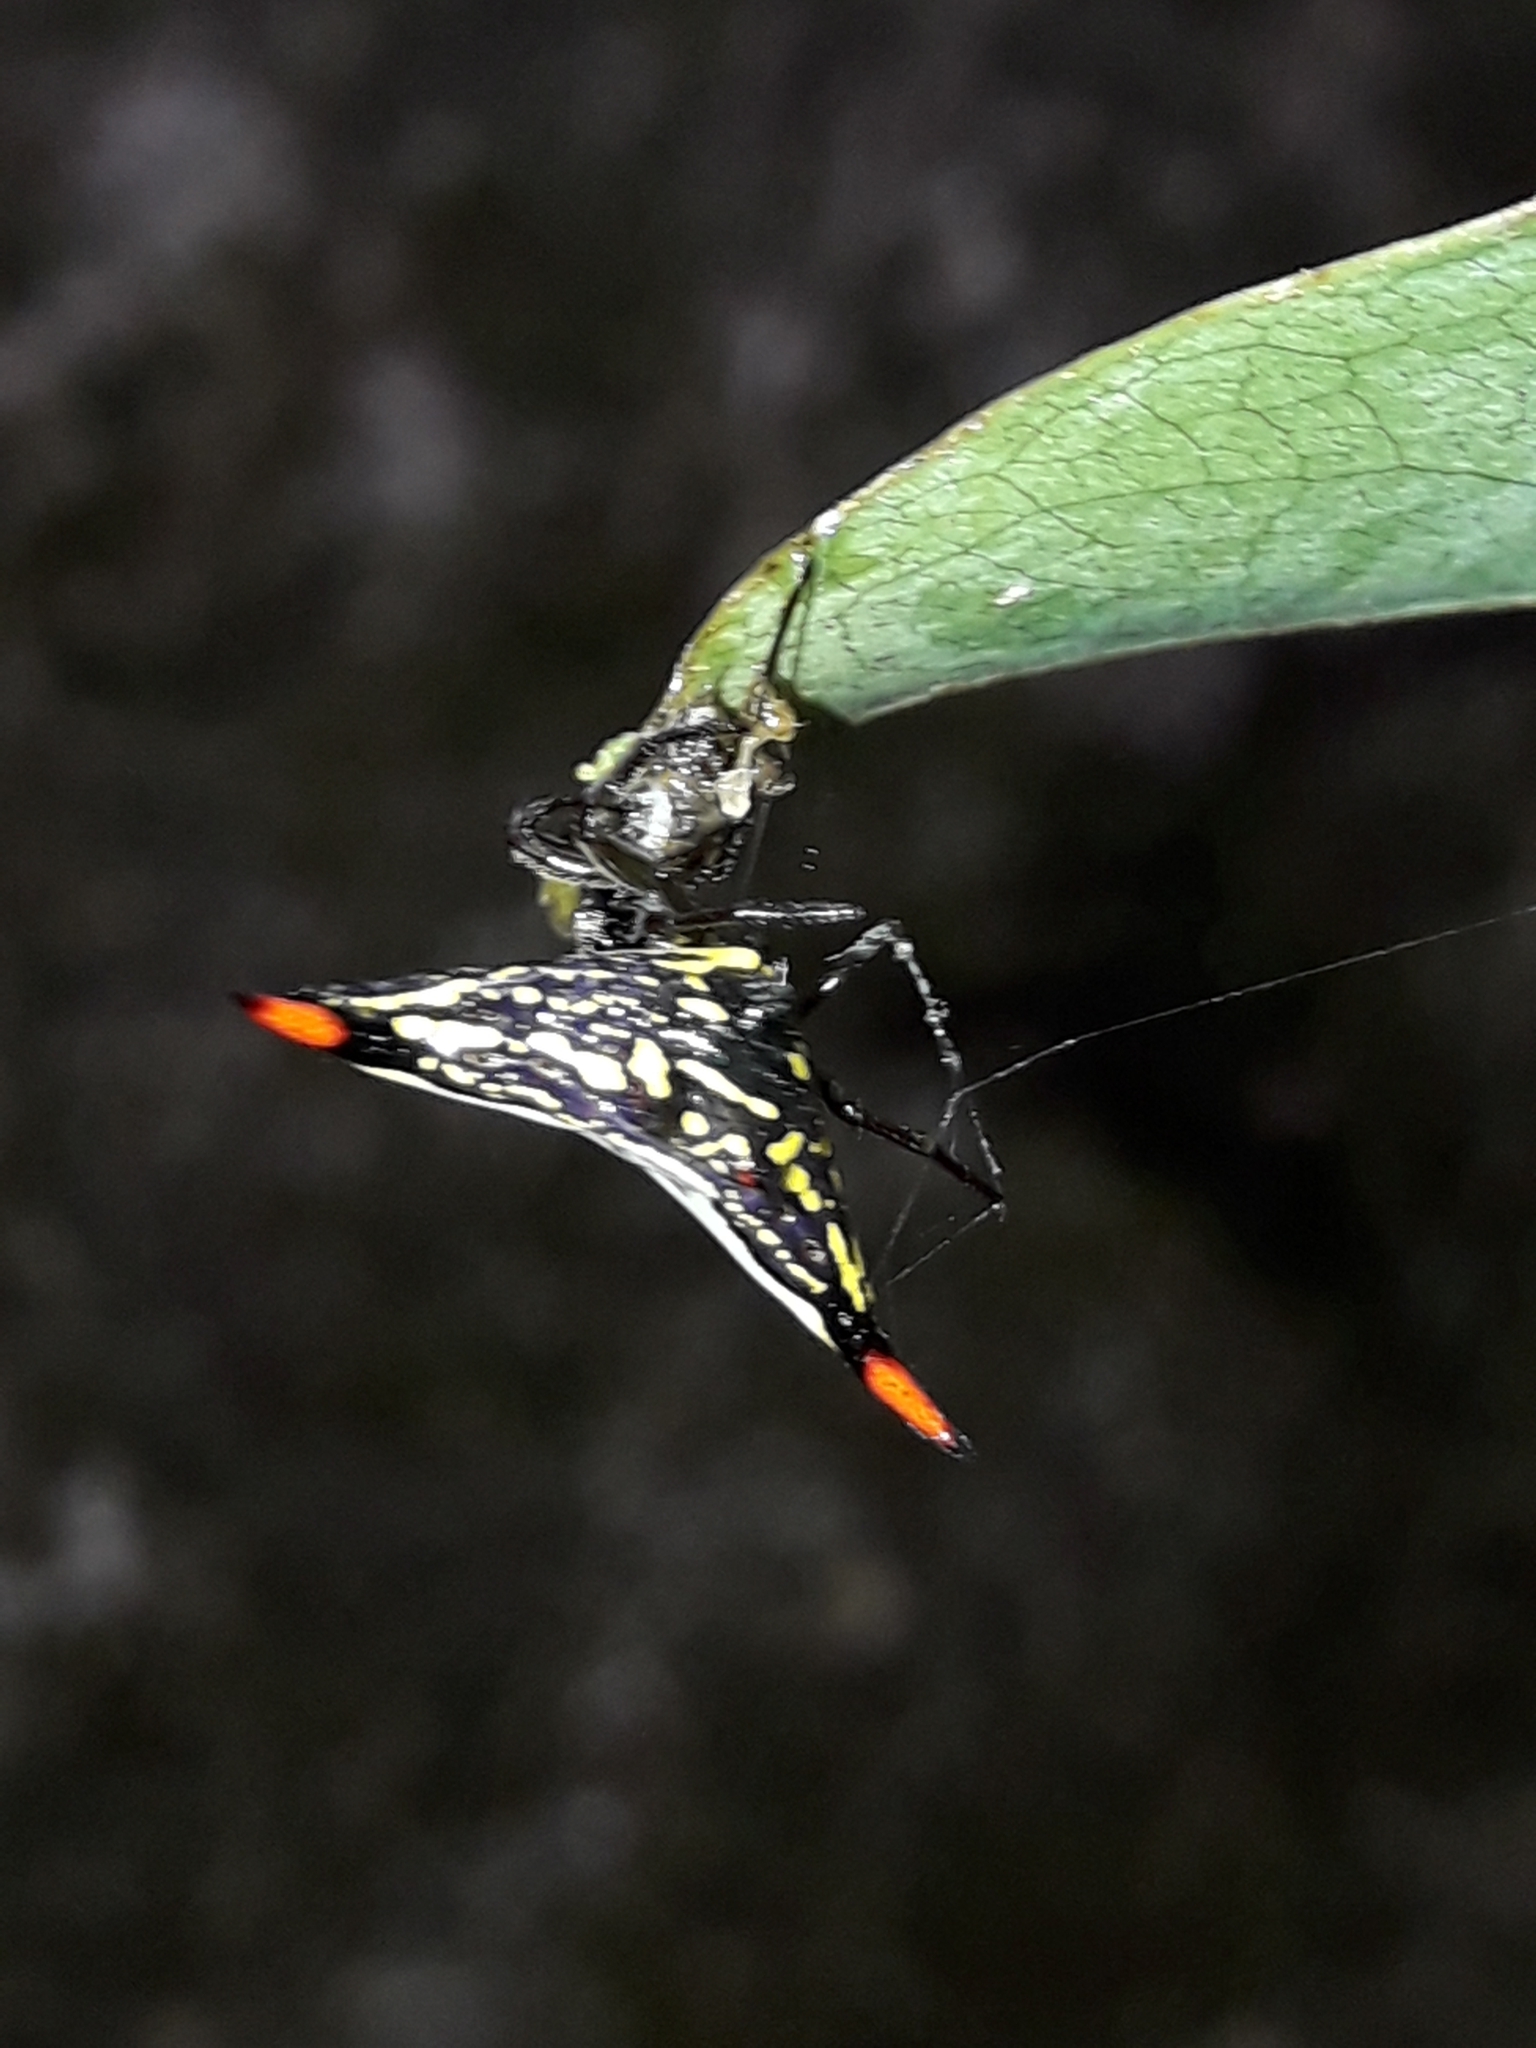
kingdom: Animalia
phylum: Arthropoda
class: Arachnida
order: Araneae
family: Araneidae
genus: Gasteracantha
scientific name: Gasteracantha westringi
